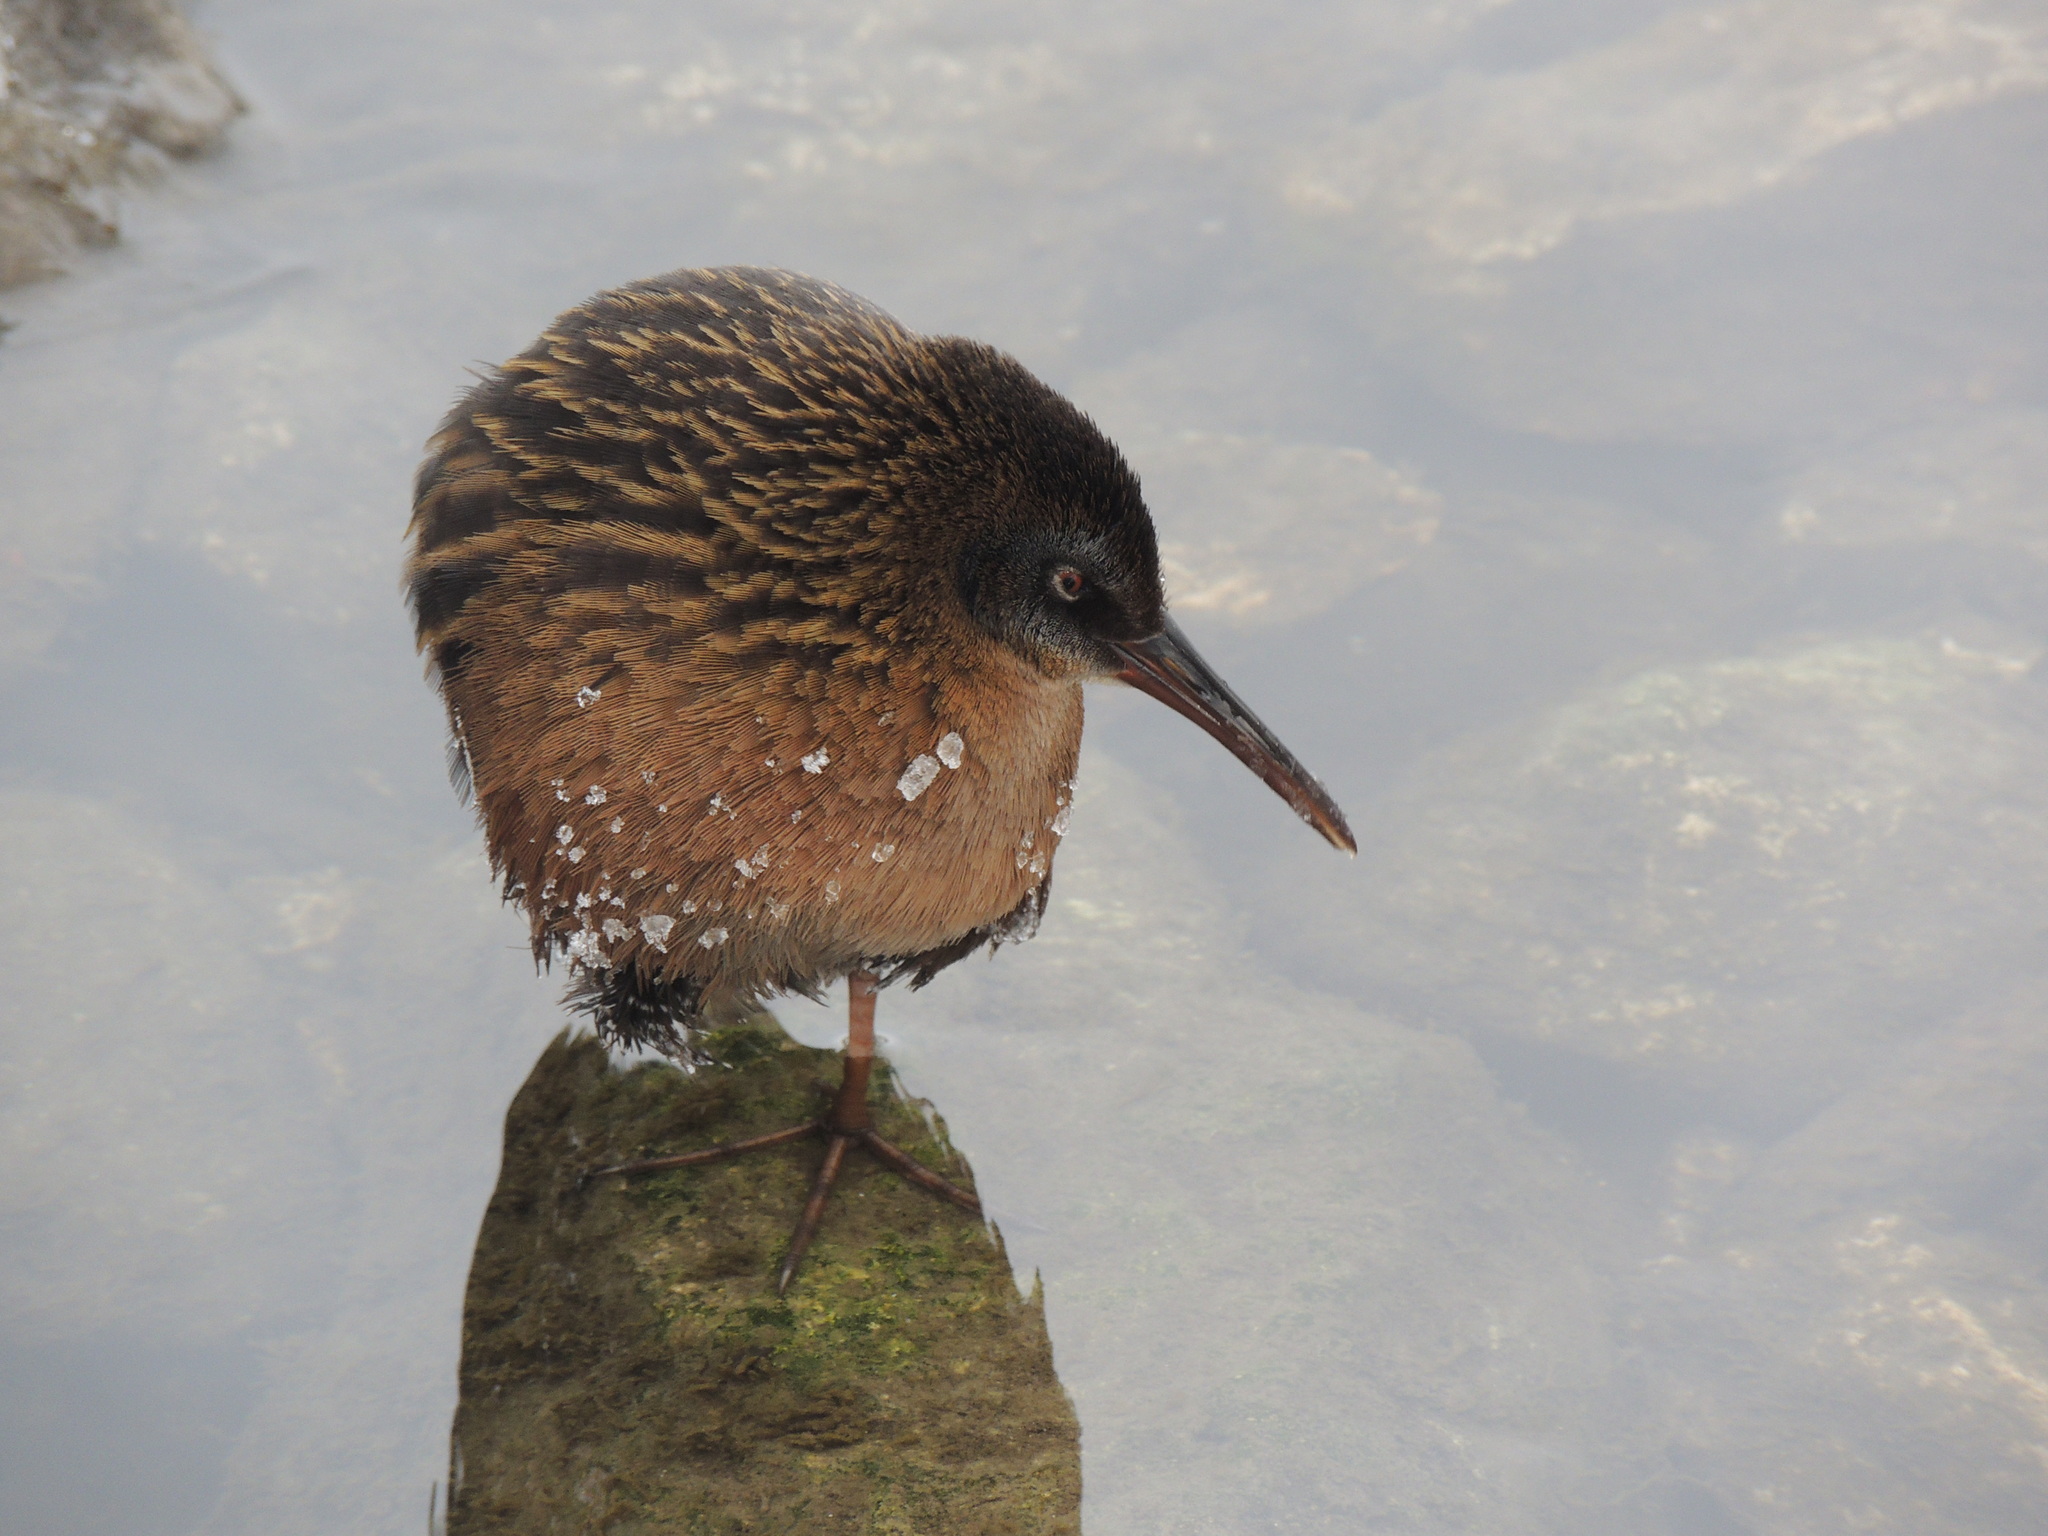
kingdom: Animalia
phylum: Chordata
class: Aves
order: Gruiformes
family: Rallidae
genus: Rallus
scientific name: Rallus limicola
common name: Virginia rail
